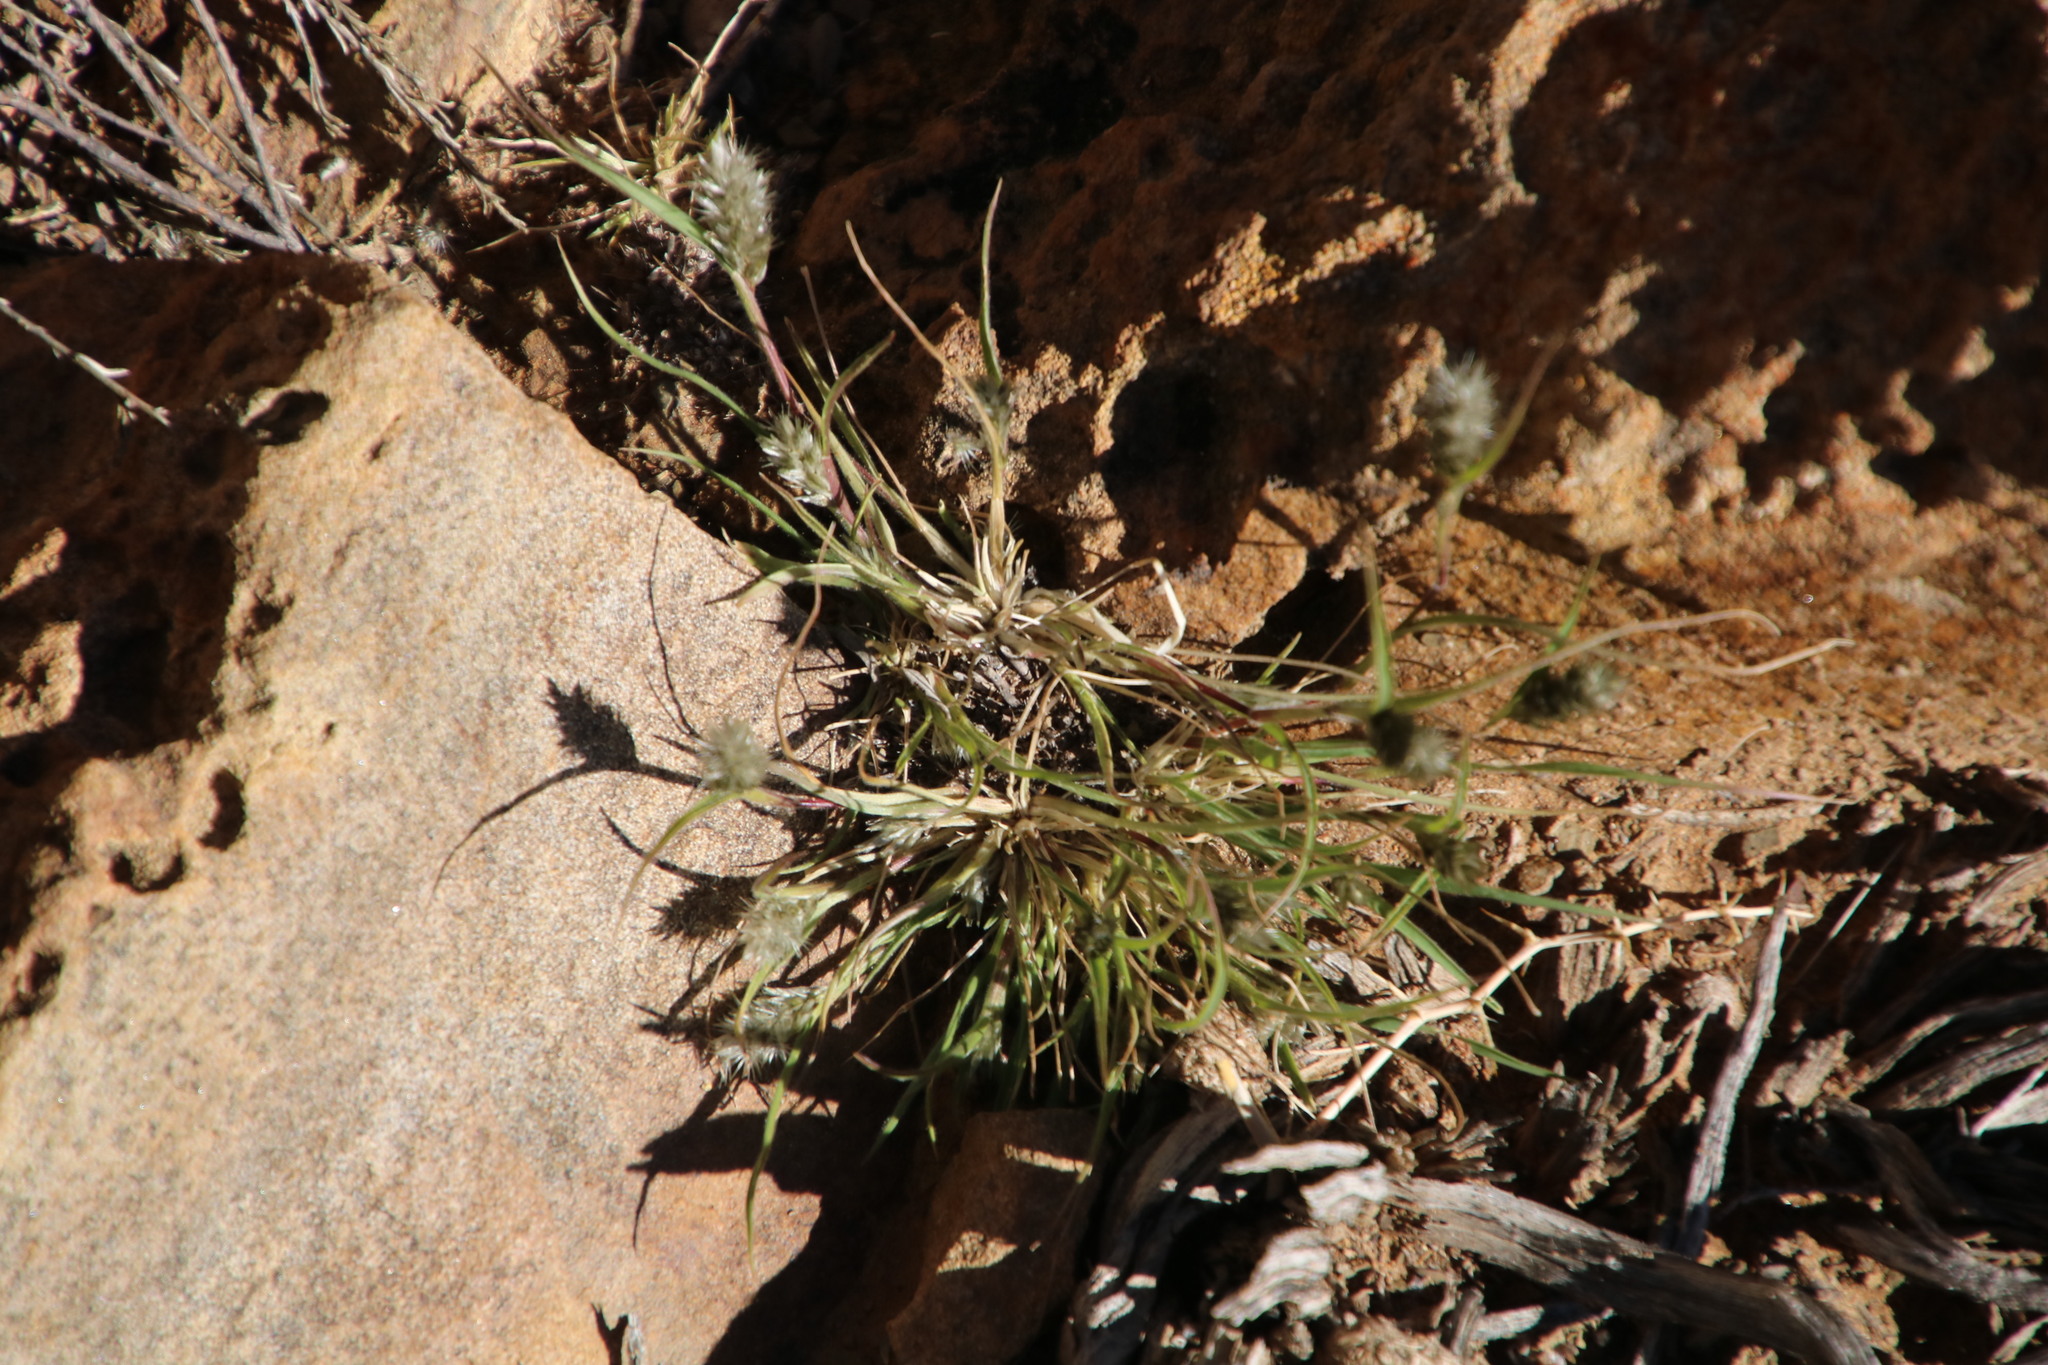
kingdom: Plantae
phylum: Tracheophyta
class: Liliopsida
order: Poales
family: Poaceae
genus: Enneapogon
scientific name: Enneapogon scaber
